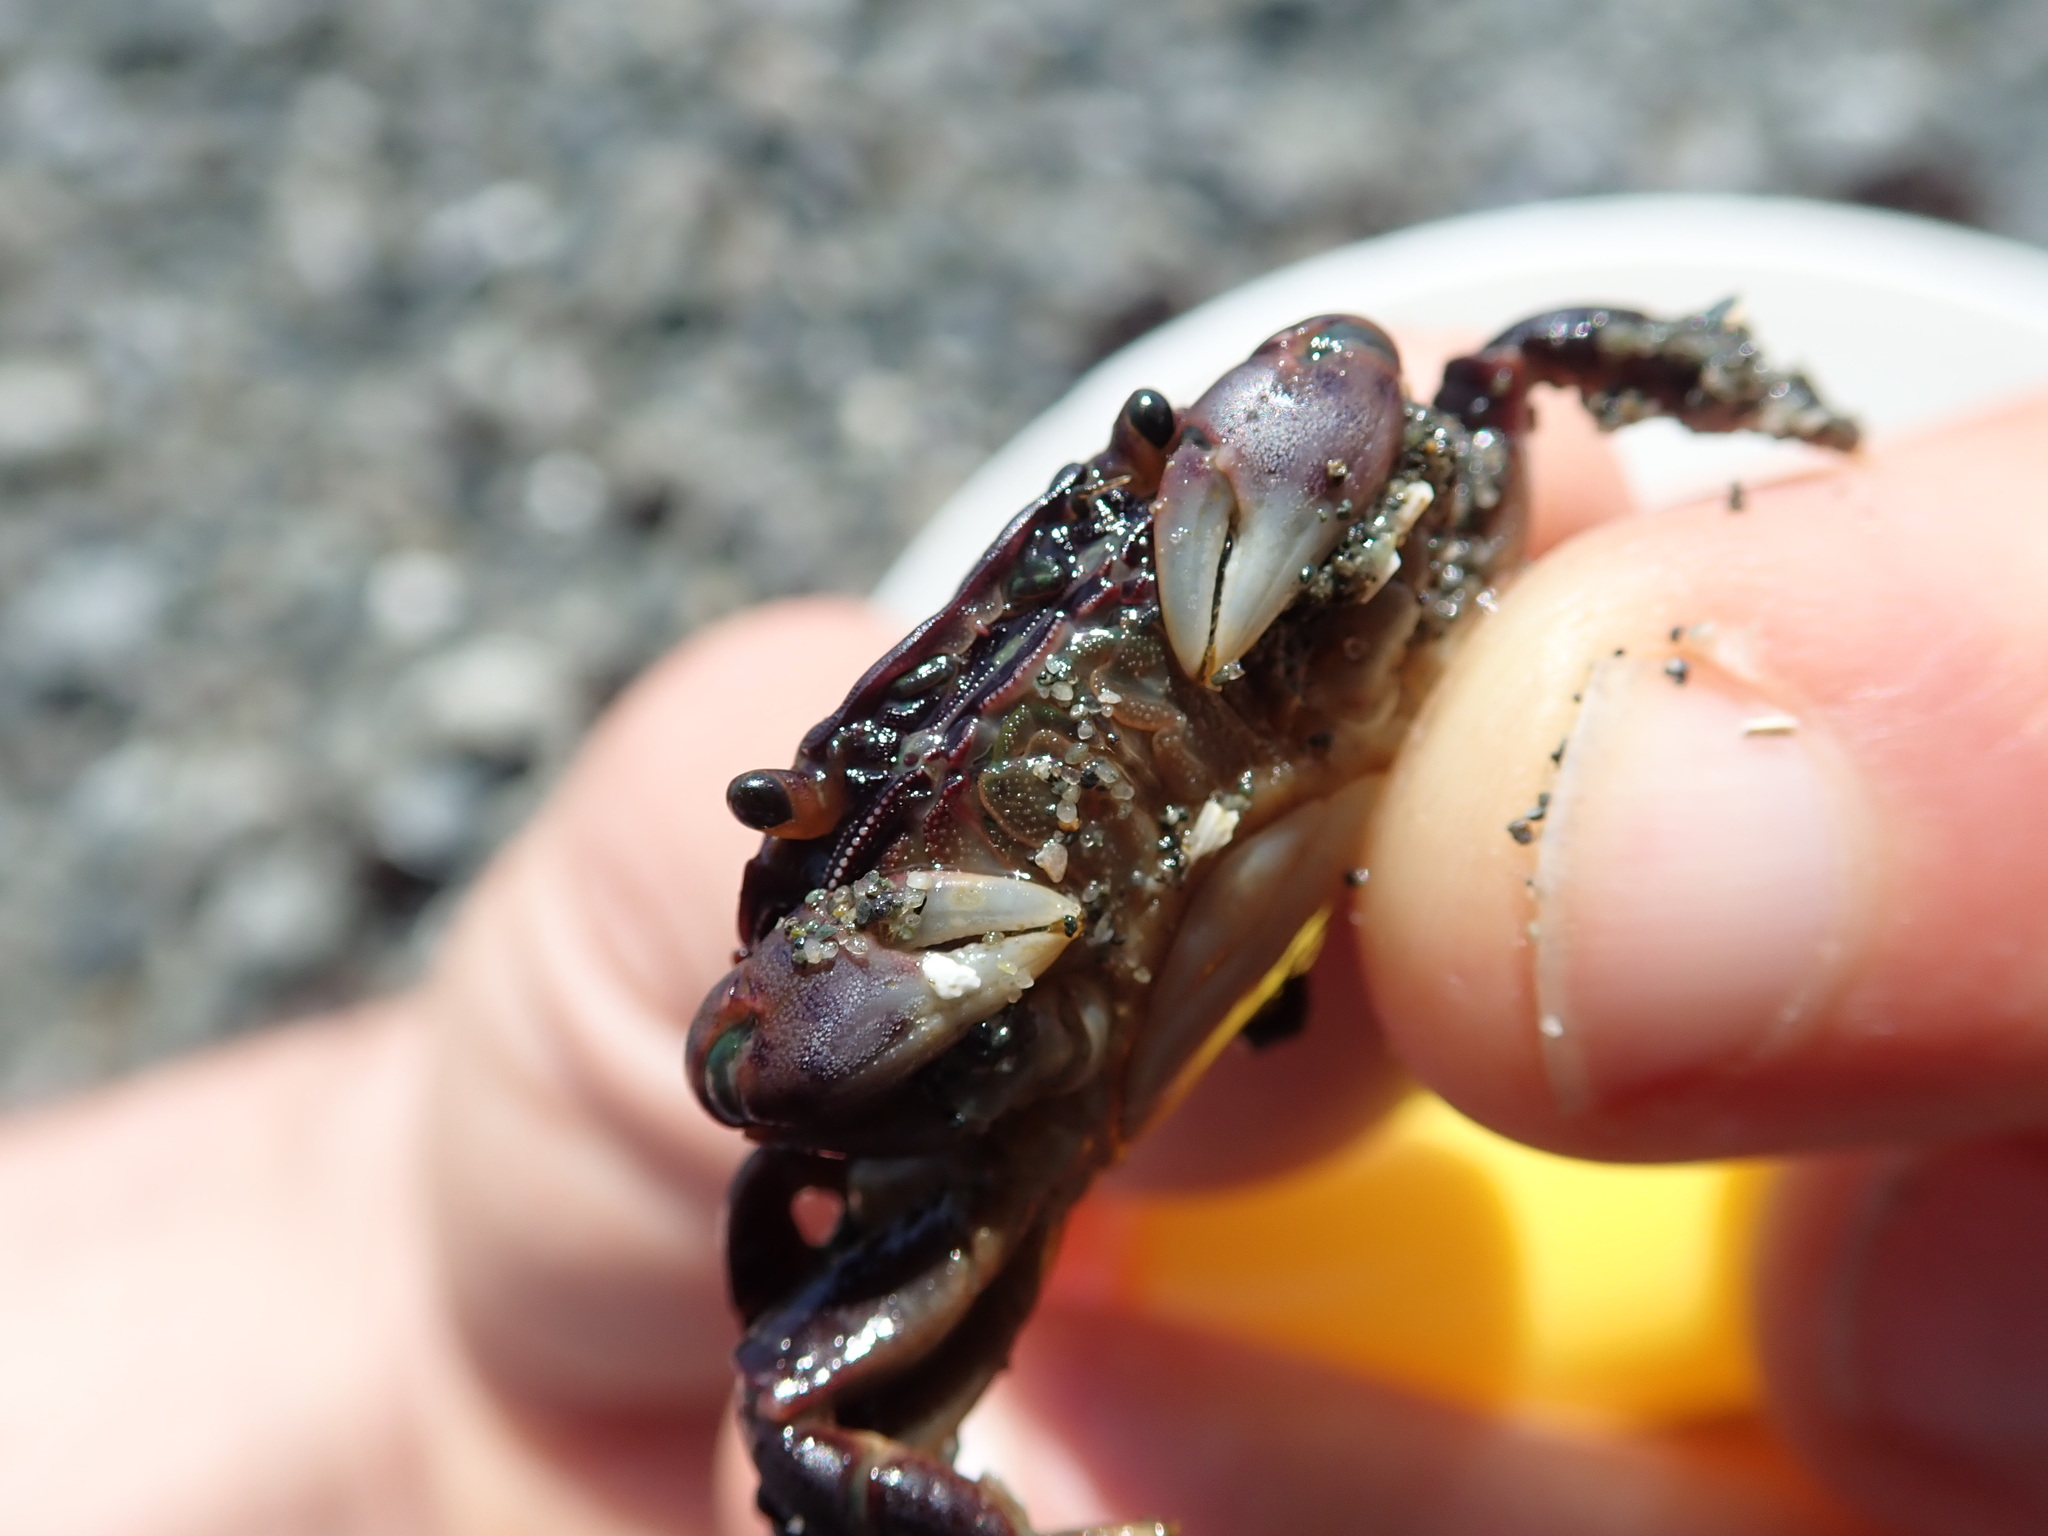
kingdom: Animalia
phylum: Arthropoda
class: Malacostraca
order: Decapoda
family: Varunidae
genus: Hemigrapsus
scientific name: Hemigrapsus nudus
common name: Purple shore crab
